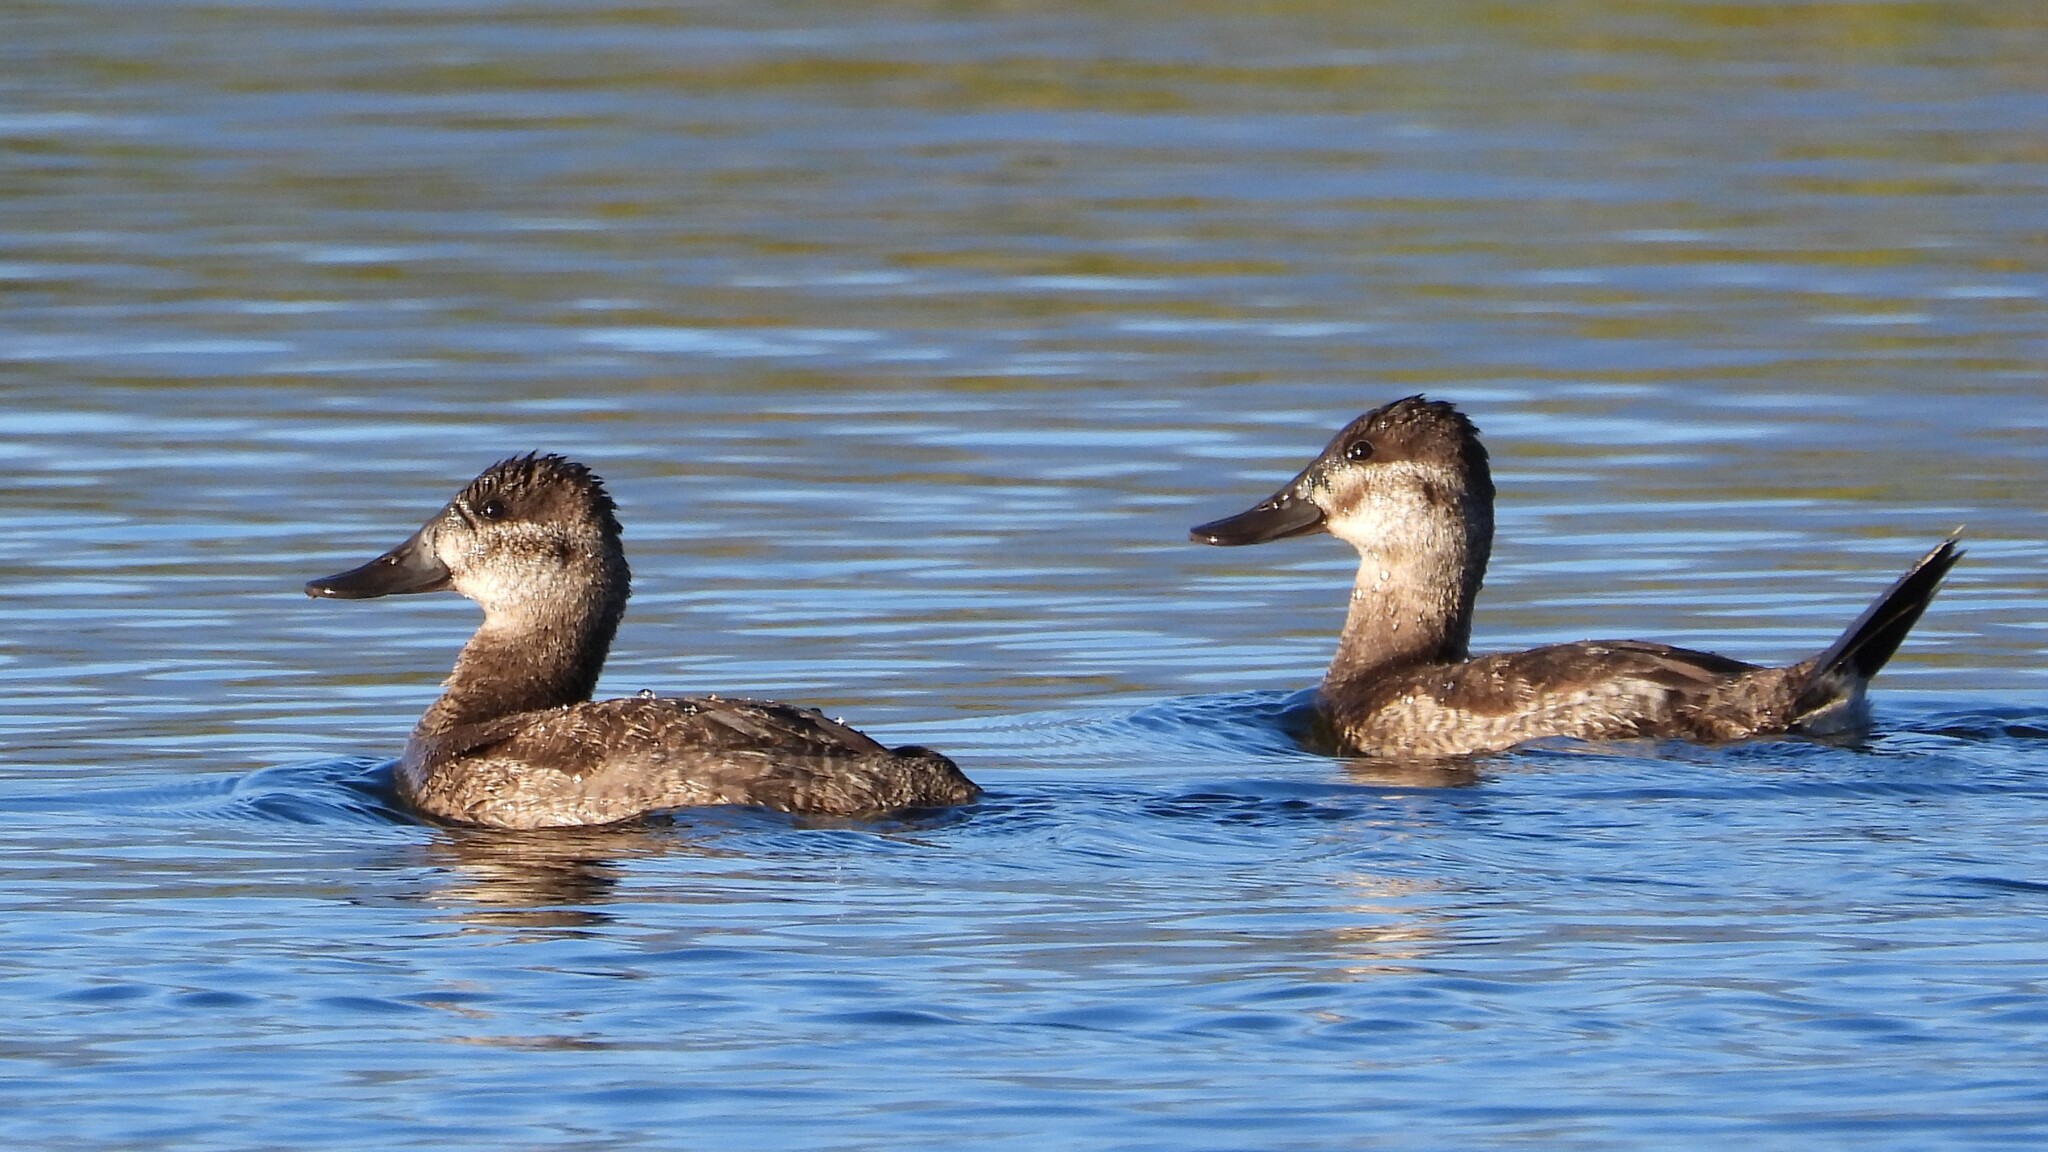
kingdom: Animalia
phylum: Chordata
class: Aves
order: Anseriformes
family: Anatidae
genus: Oxyura
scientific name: Oxyura jamaicensis
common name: Ruddy duck
